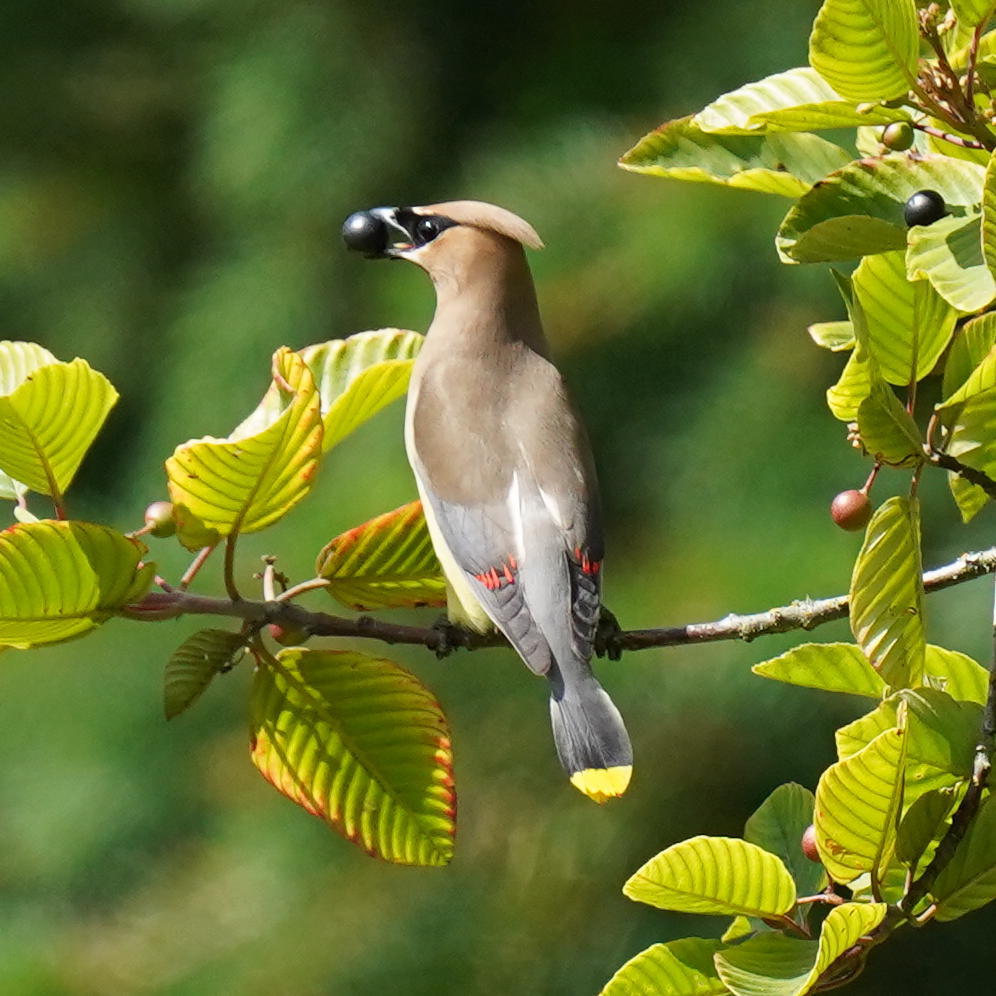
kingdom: Animalia
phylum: Chordata
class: Aves
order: Passeriformes
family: Bombycillidae
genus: Bombycilla
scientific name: Bombycilla cedrorum
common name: Cedar waxwing
